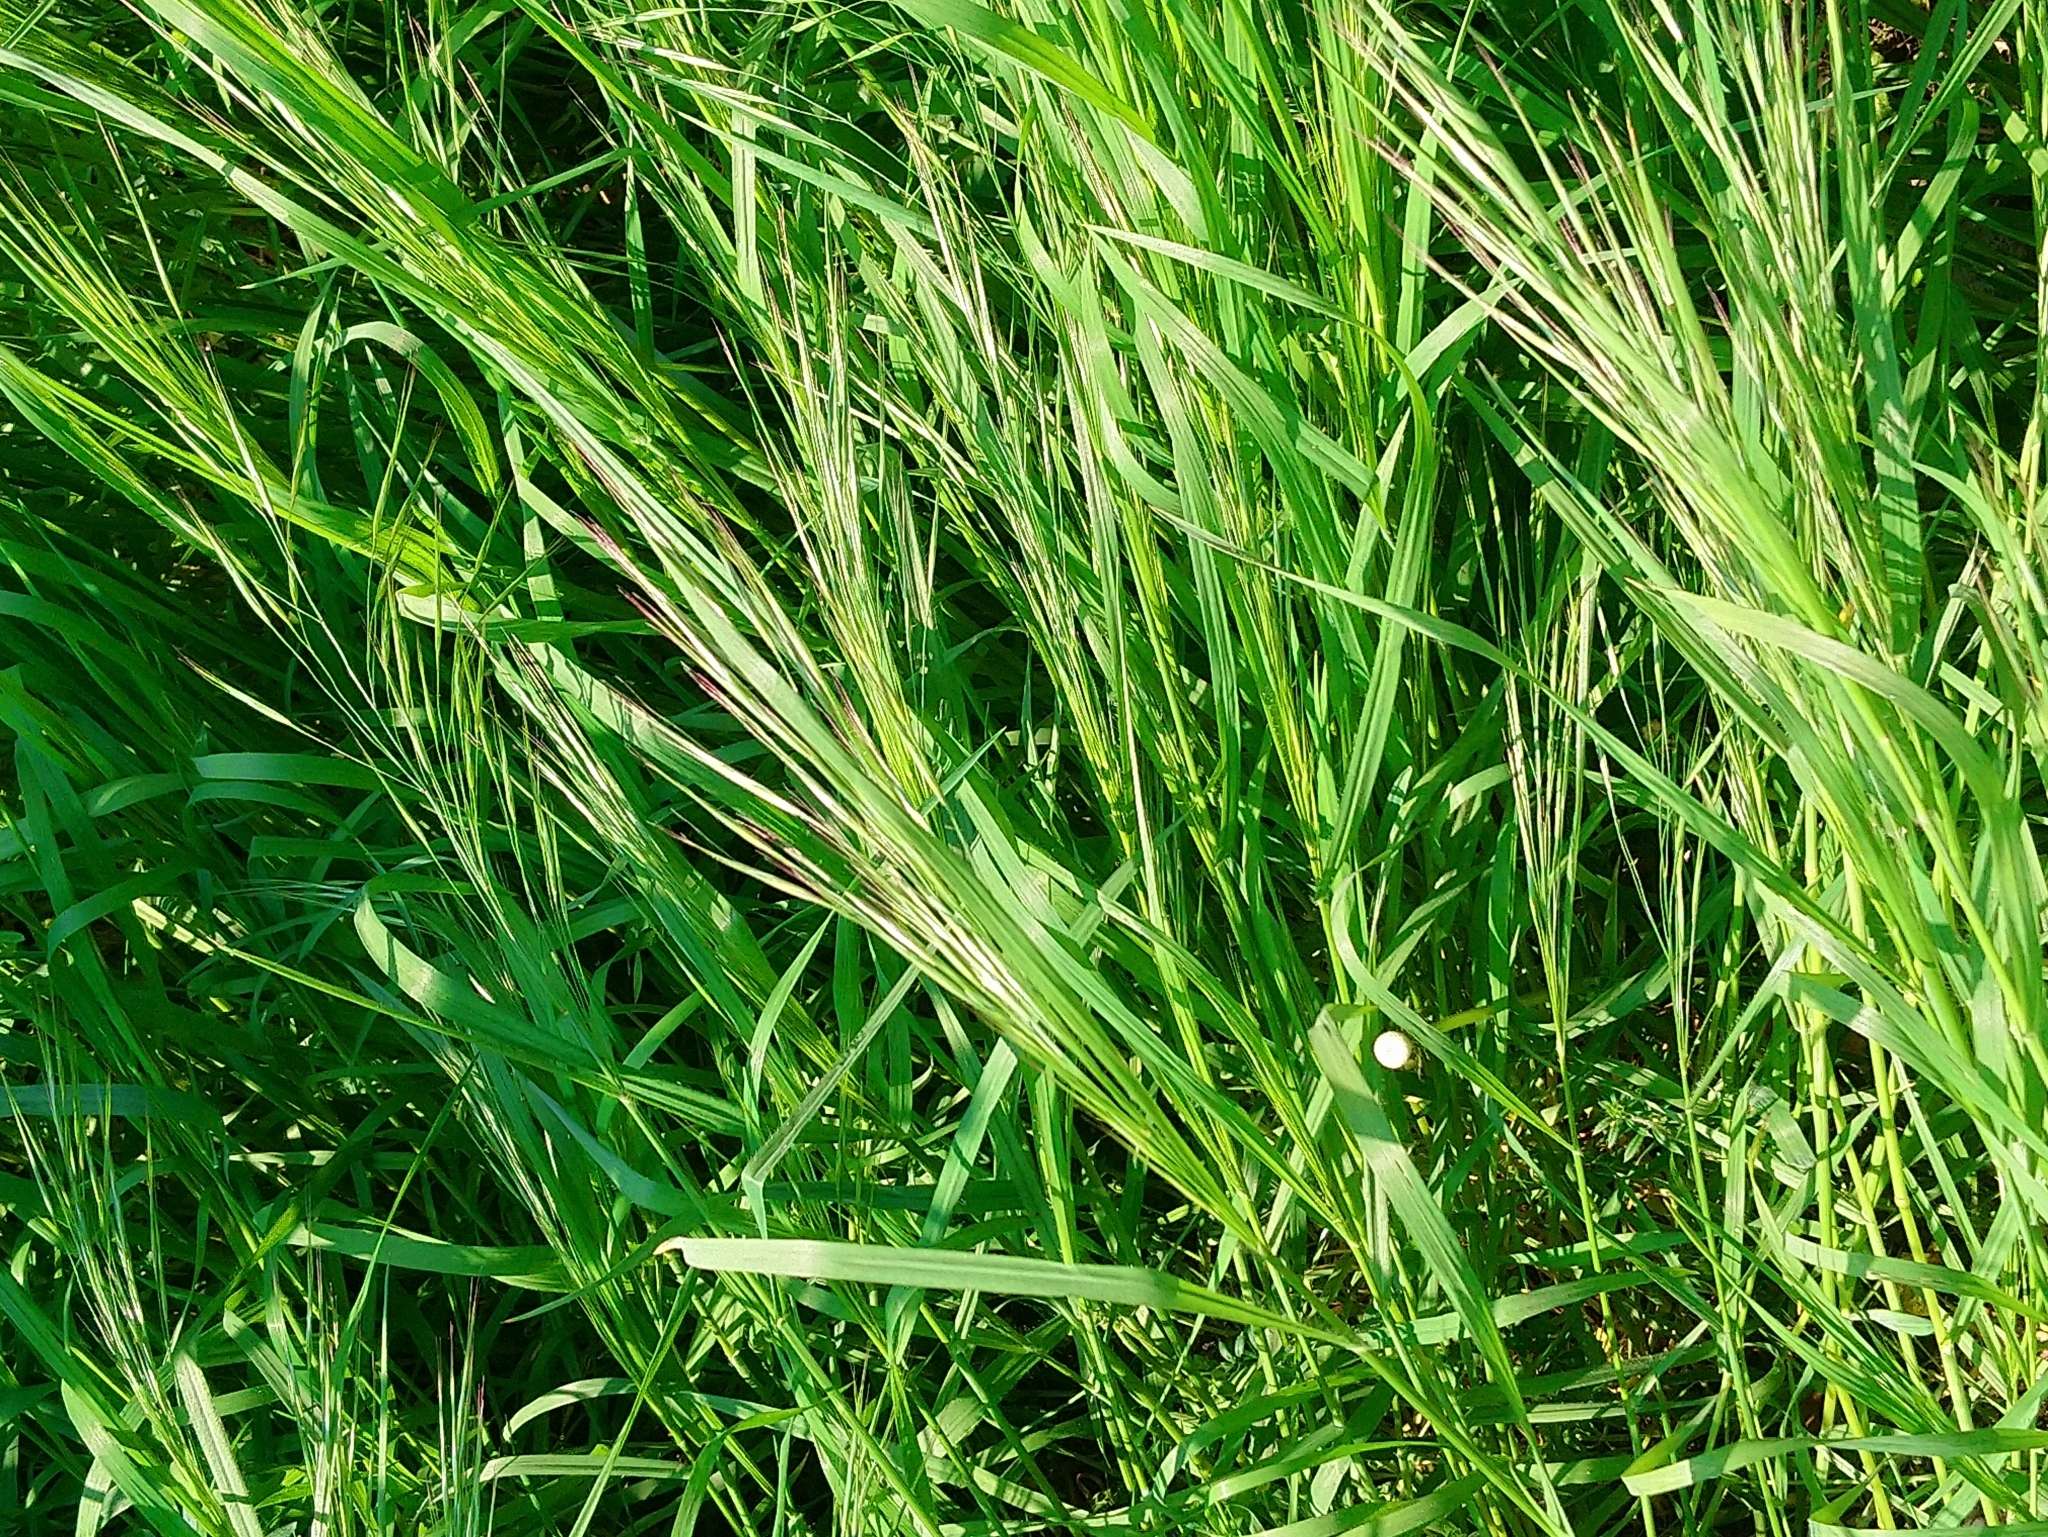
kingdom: Plantae
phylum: Tracheophyta
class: Liliopsida
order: Poales
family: Poaceae
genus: Bromus
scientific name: Bromus sterilis
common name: Poverty brome
